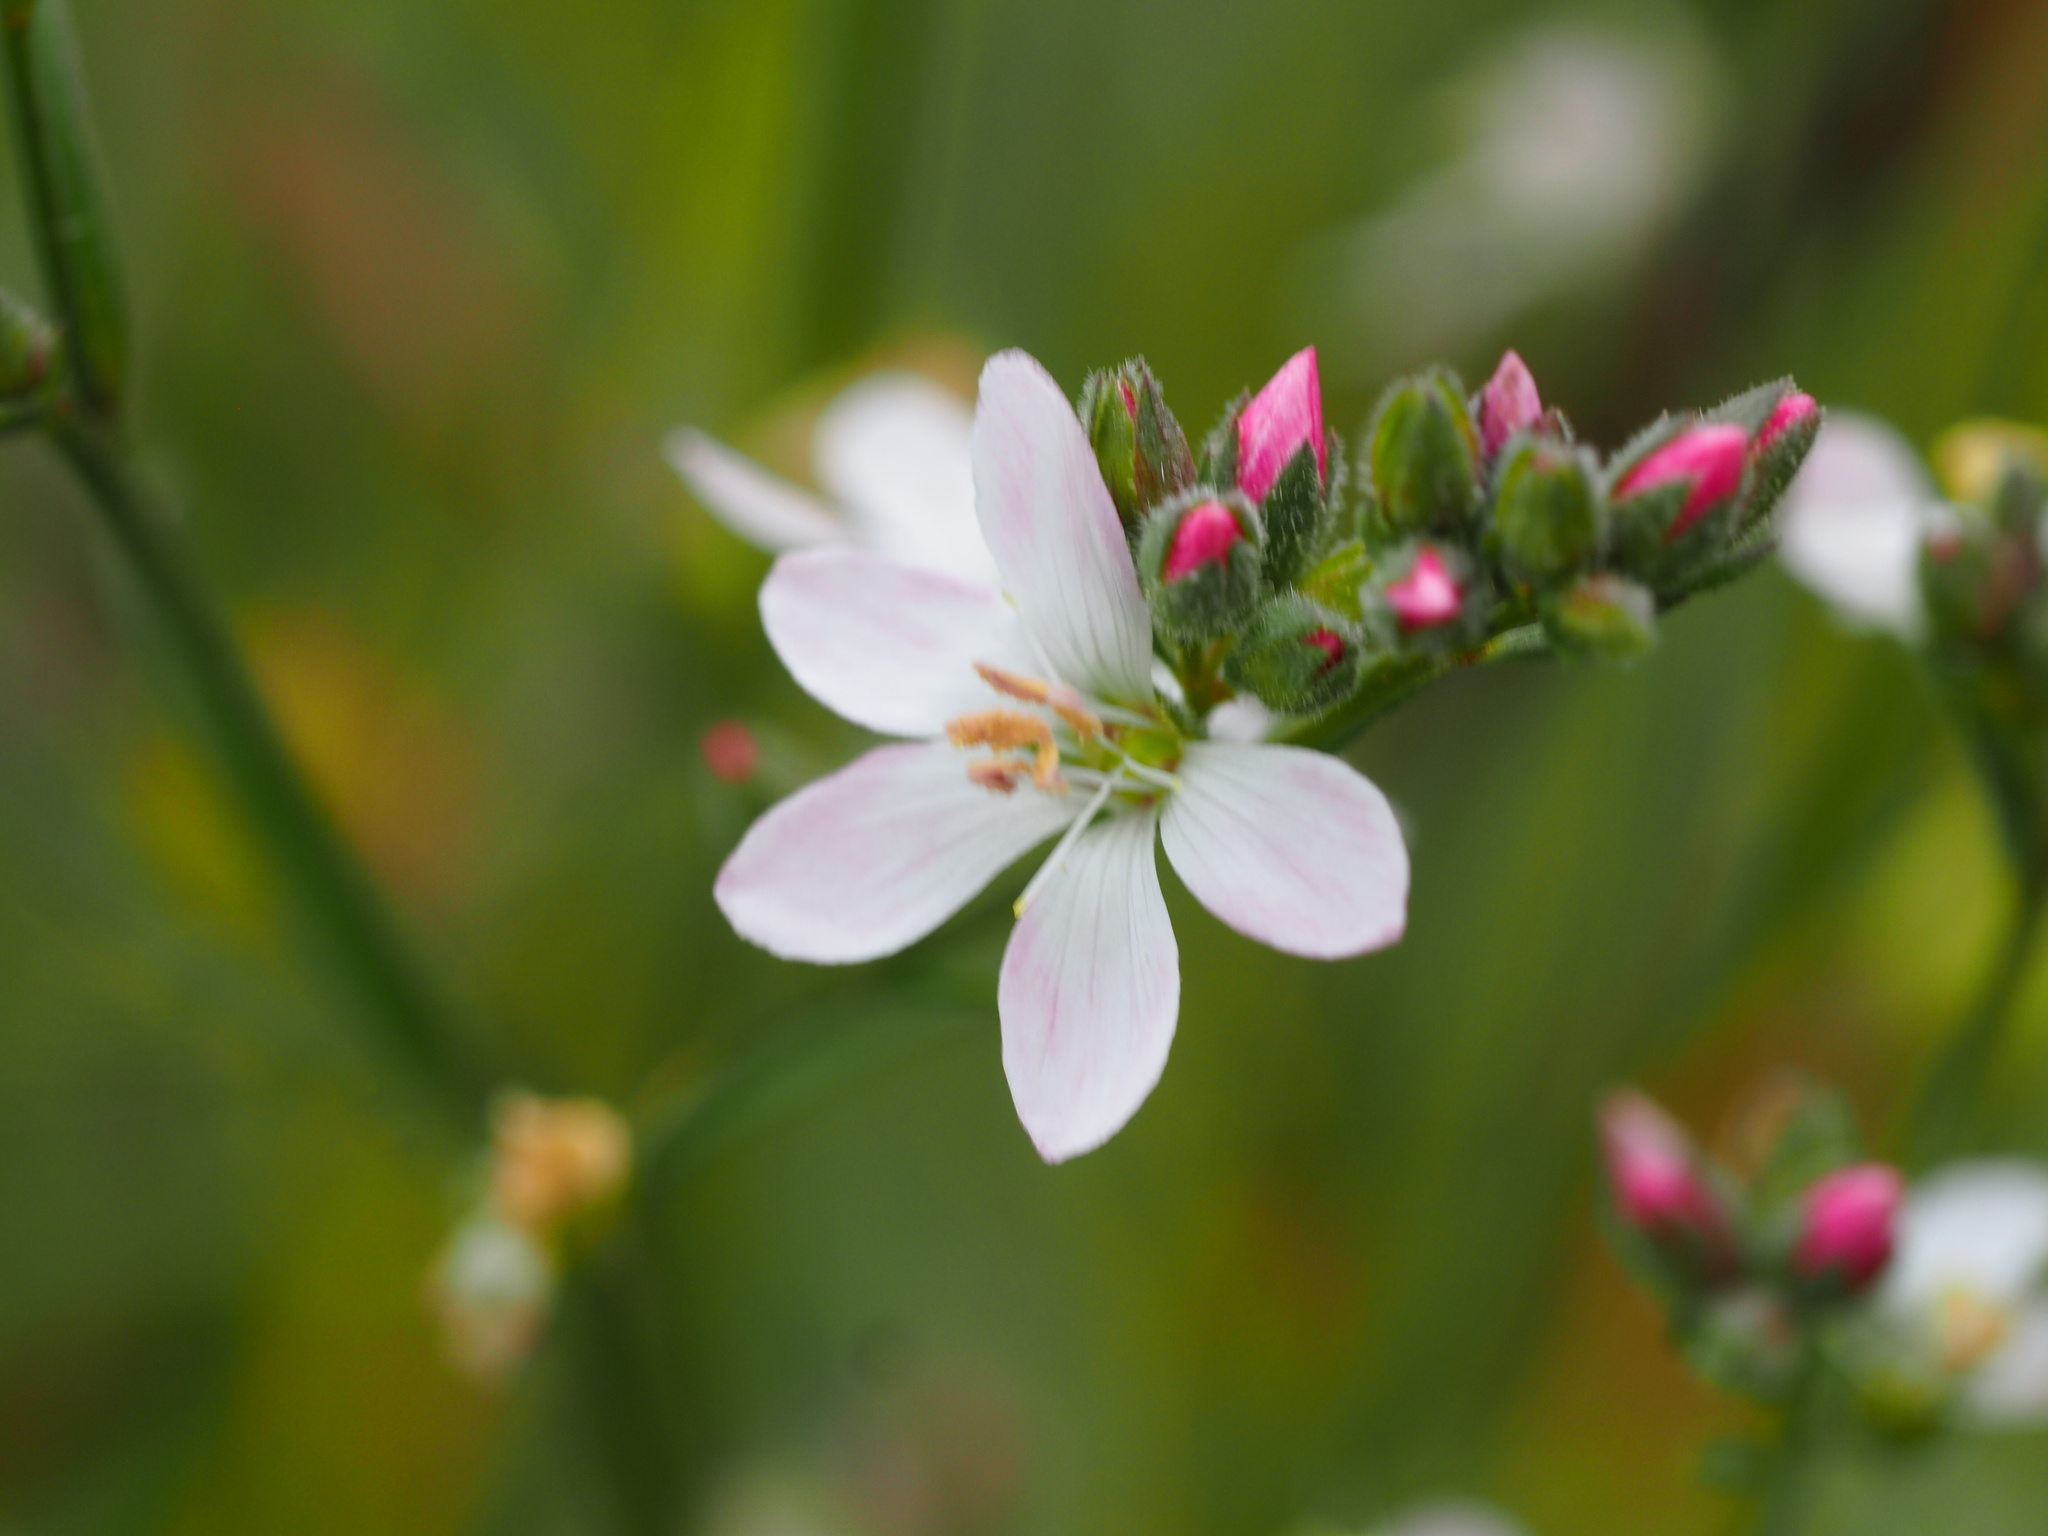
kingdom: Plantae
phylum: Tracheophyta
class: Magnoliopsida
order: Malpighiales
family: Linaceae
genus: Hesperolinon
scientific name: Hesperolinon congestum
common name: Marin dwarf-flax
